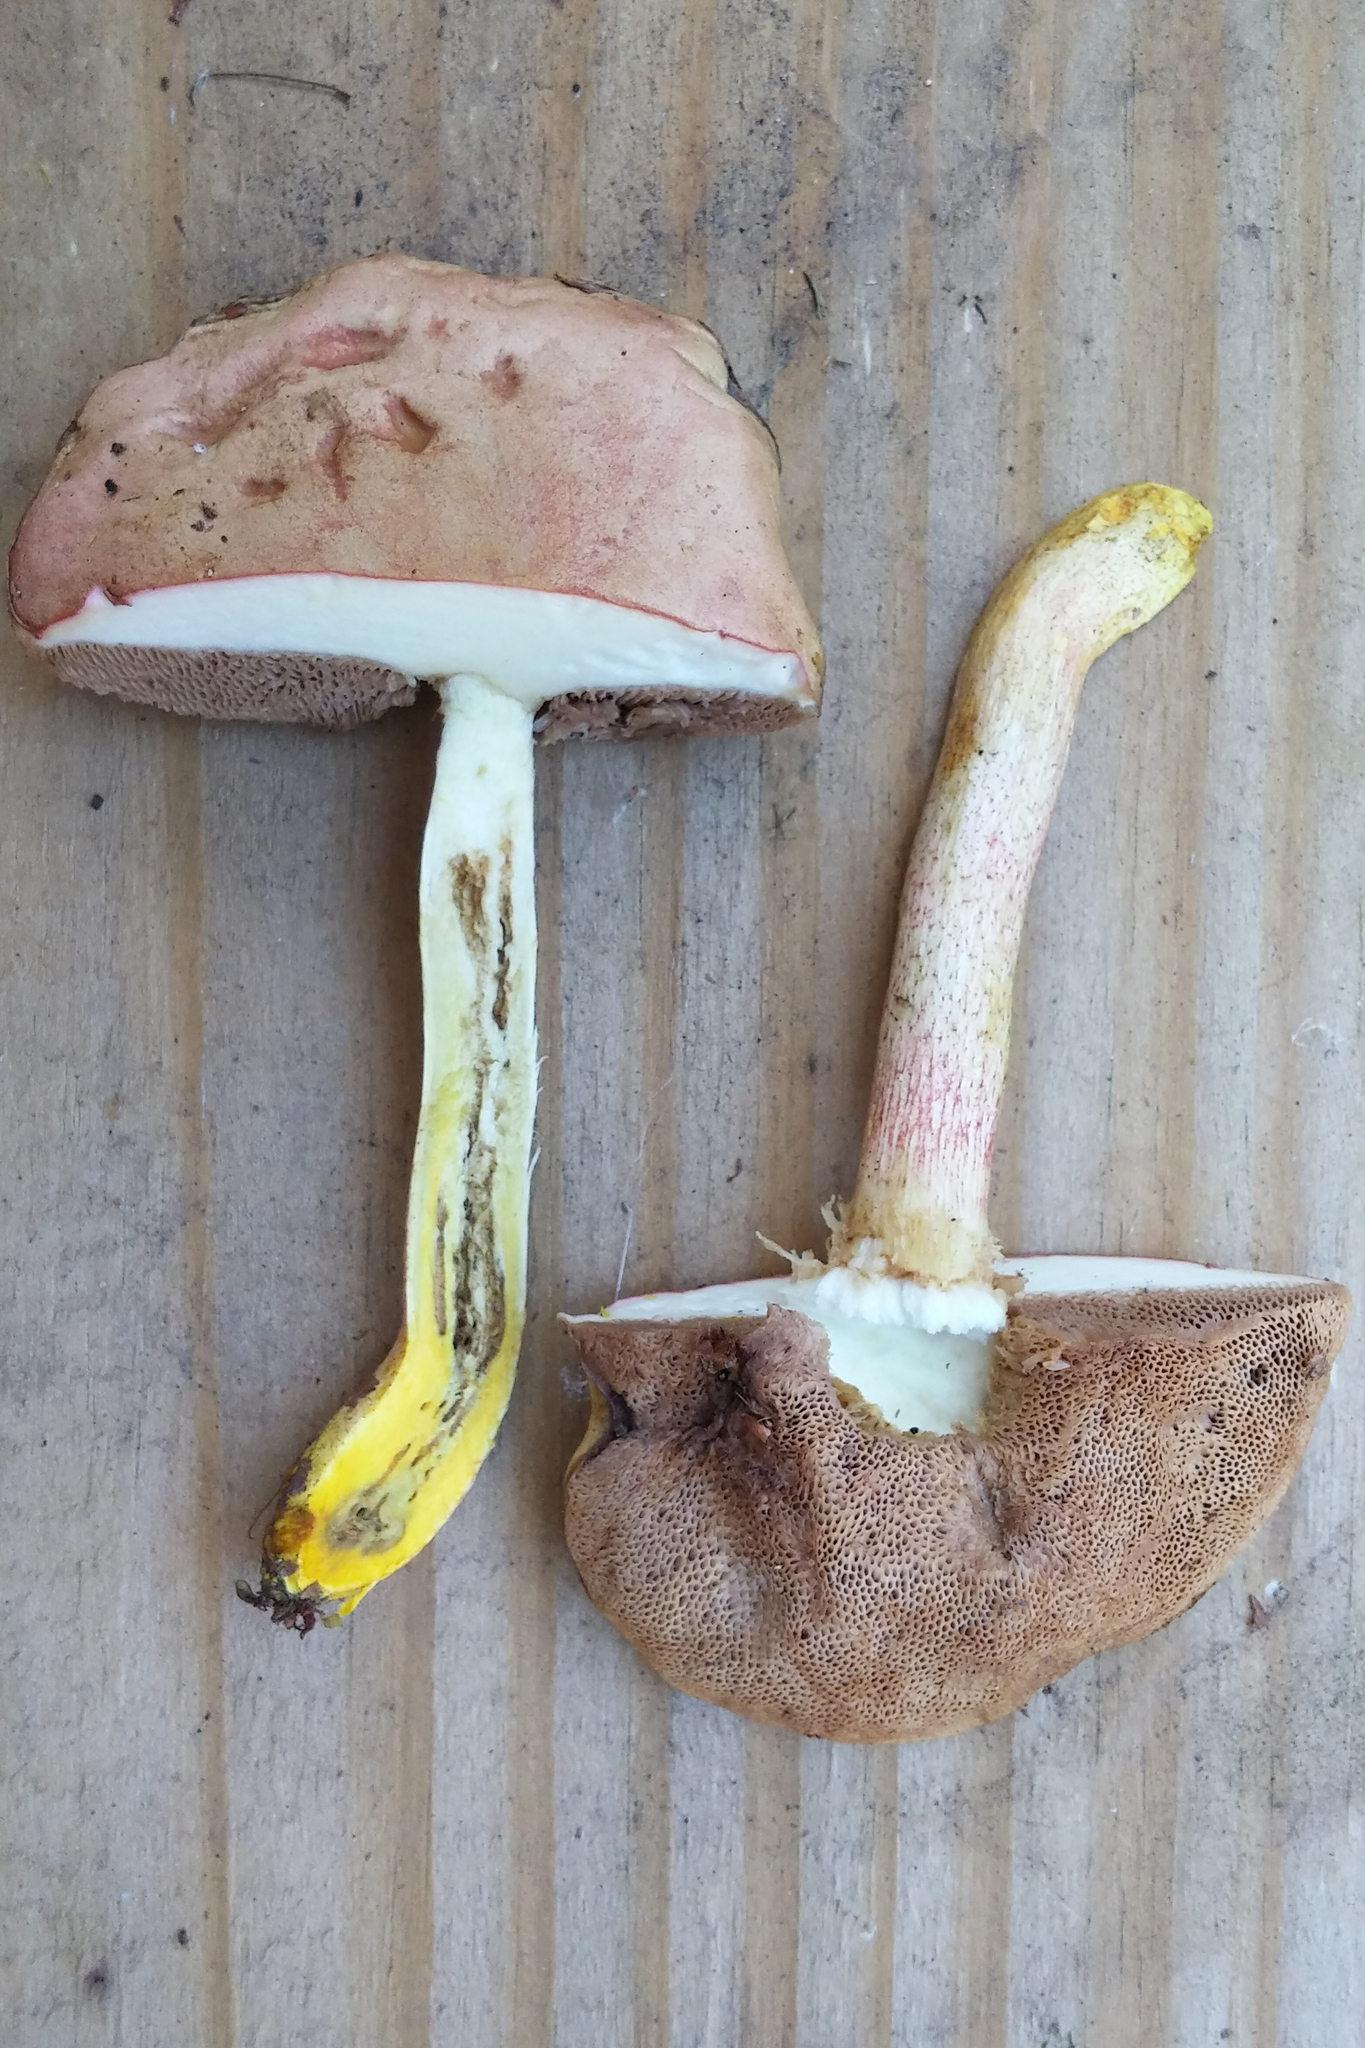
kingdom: Fungi
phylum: Basidiomycota
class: Agaricomycetes
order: Boletales
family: Boletaceae
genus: Harrya
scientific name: Harrya chromipes
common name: Chrome-footed bolete
